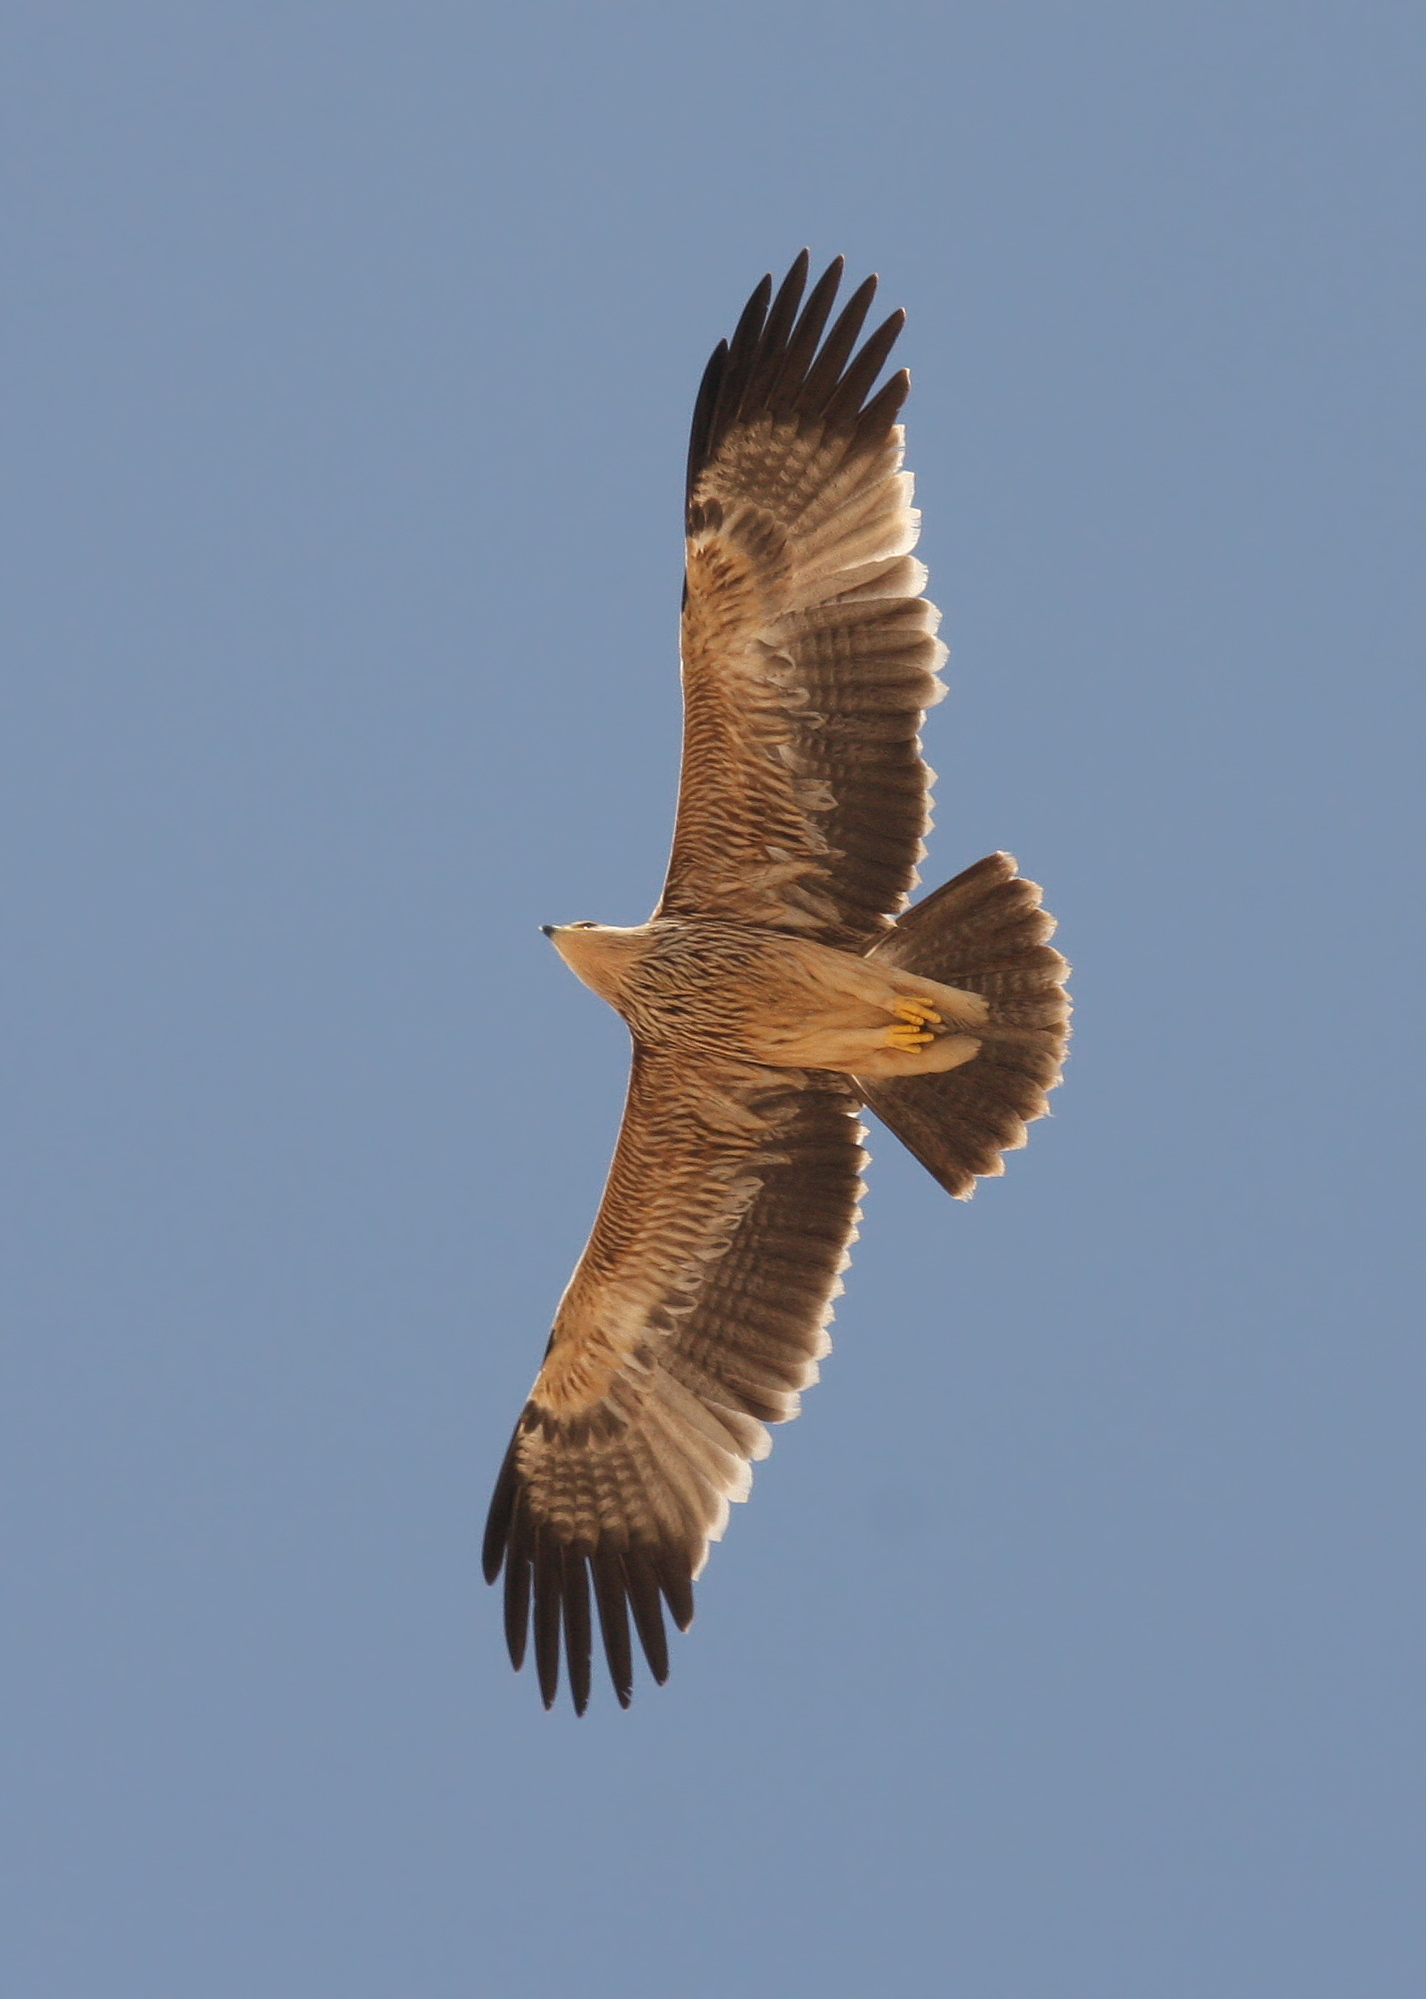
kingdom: Animalia
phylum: Chordata
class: Aves
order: Accipitriformes
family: Accipitridae
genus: Aquila
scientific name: Aquila heliaca
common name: Eastern imperial eagle
